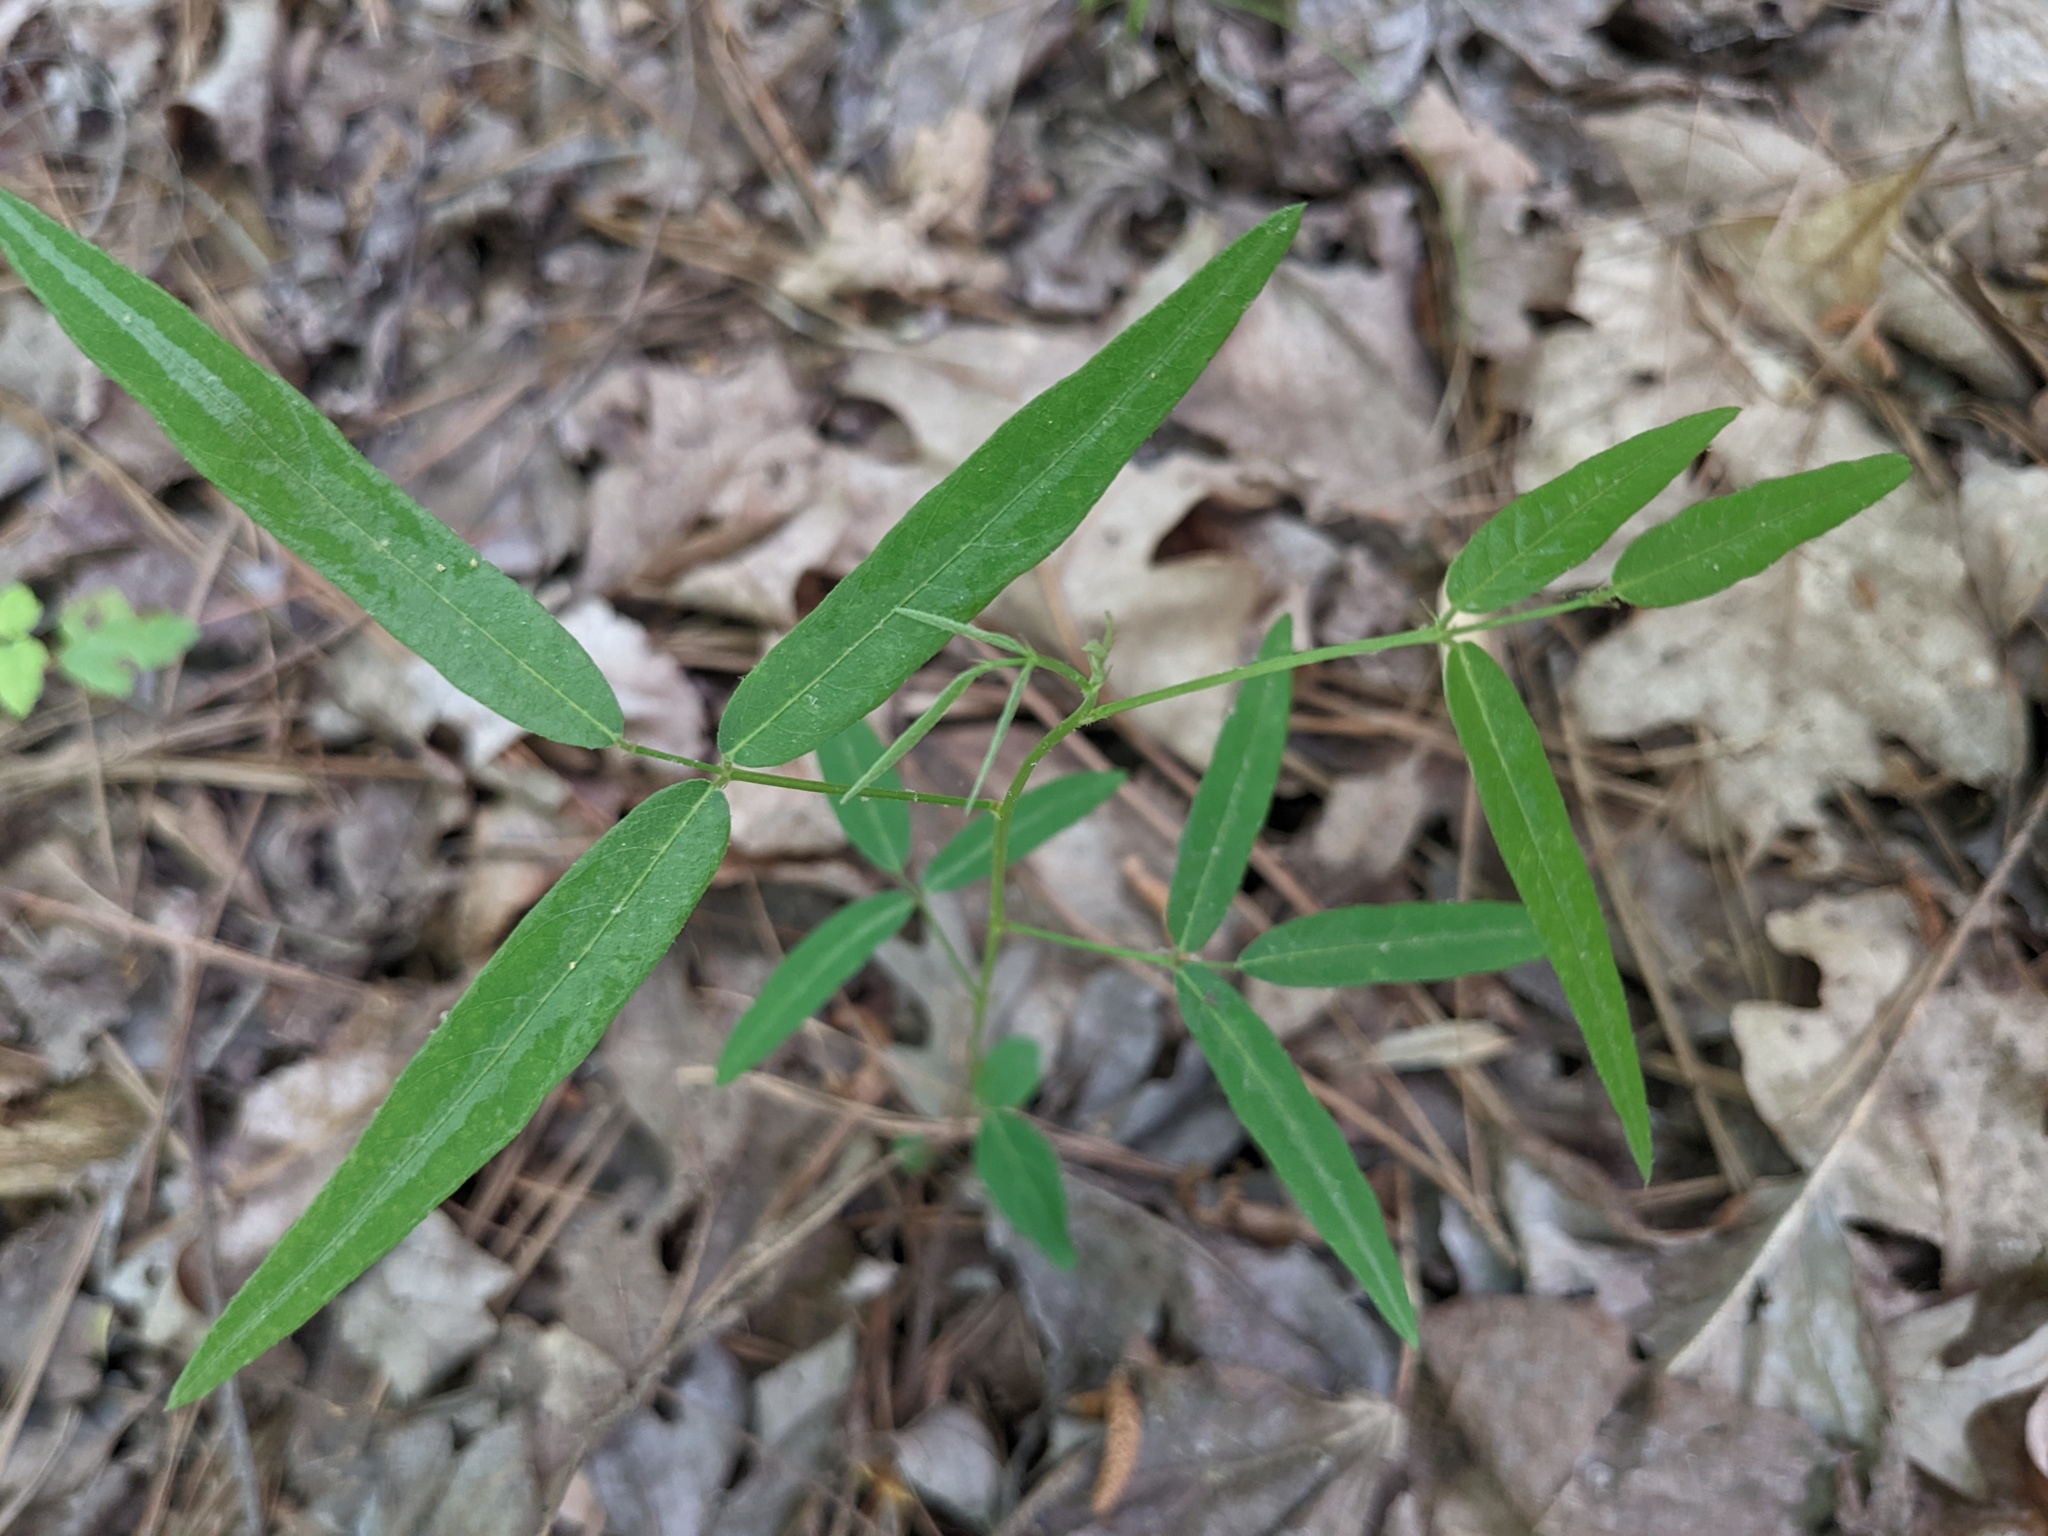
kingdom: Plantae
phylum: Tracheophyta
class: Magnoliopsida
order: Fabales
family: Fabaceae
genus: Desmodium
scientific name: Desmodium paniculatum
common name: Panicled tick-clover
